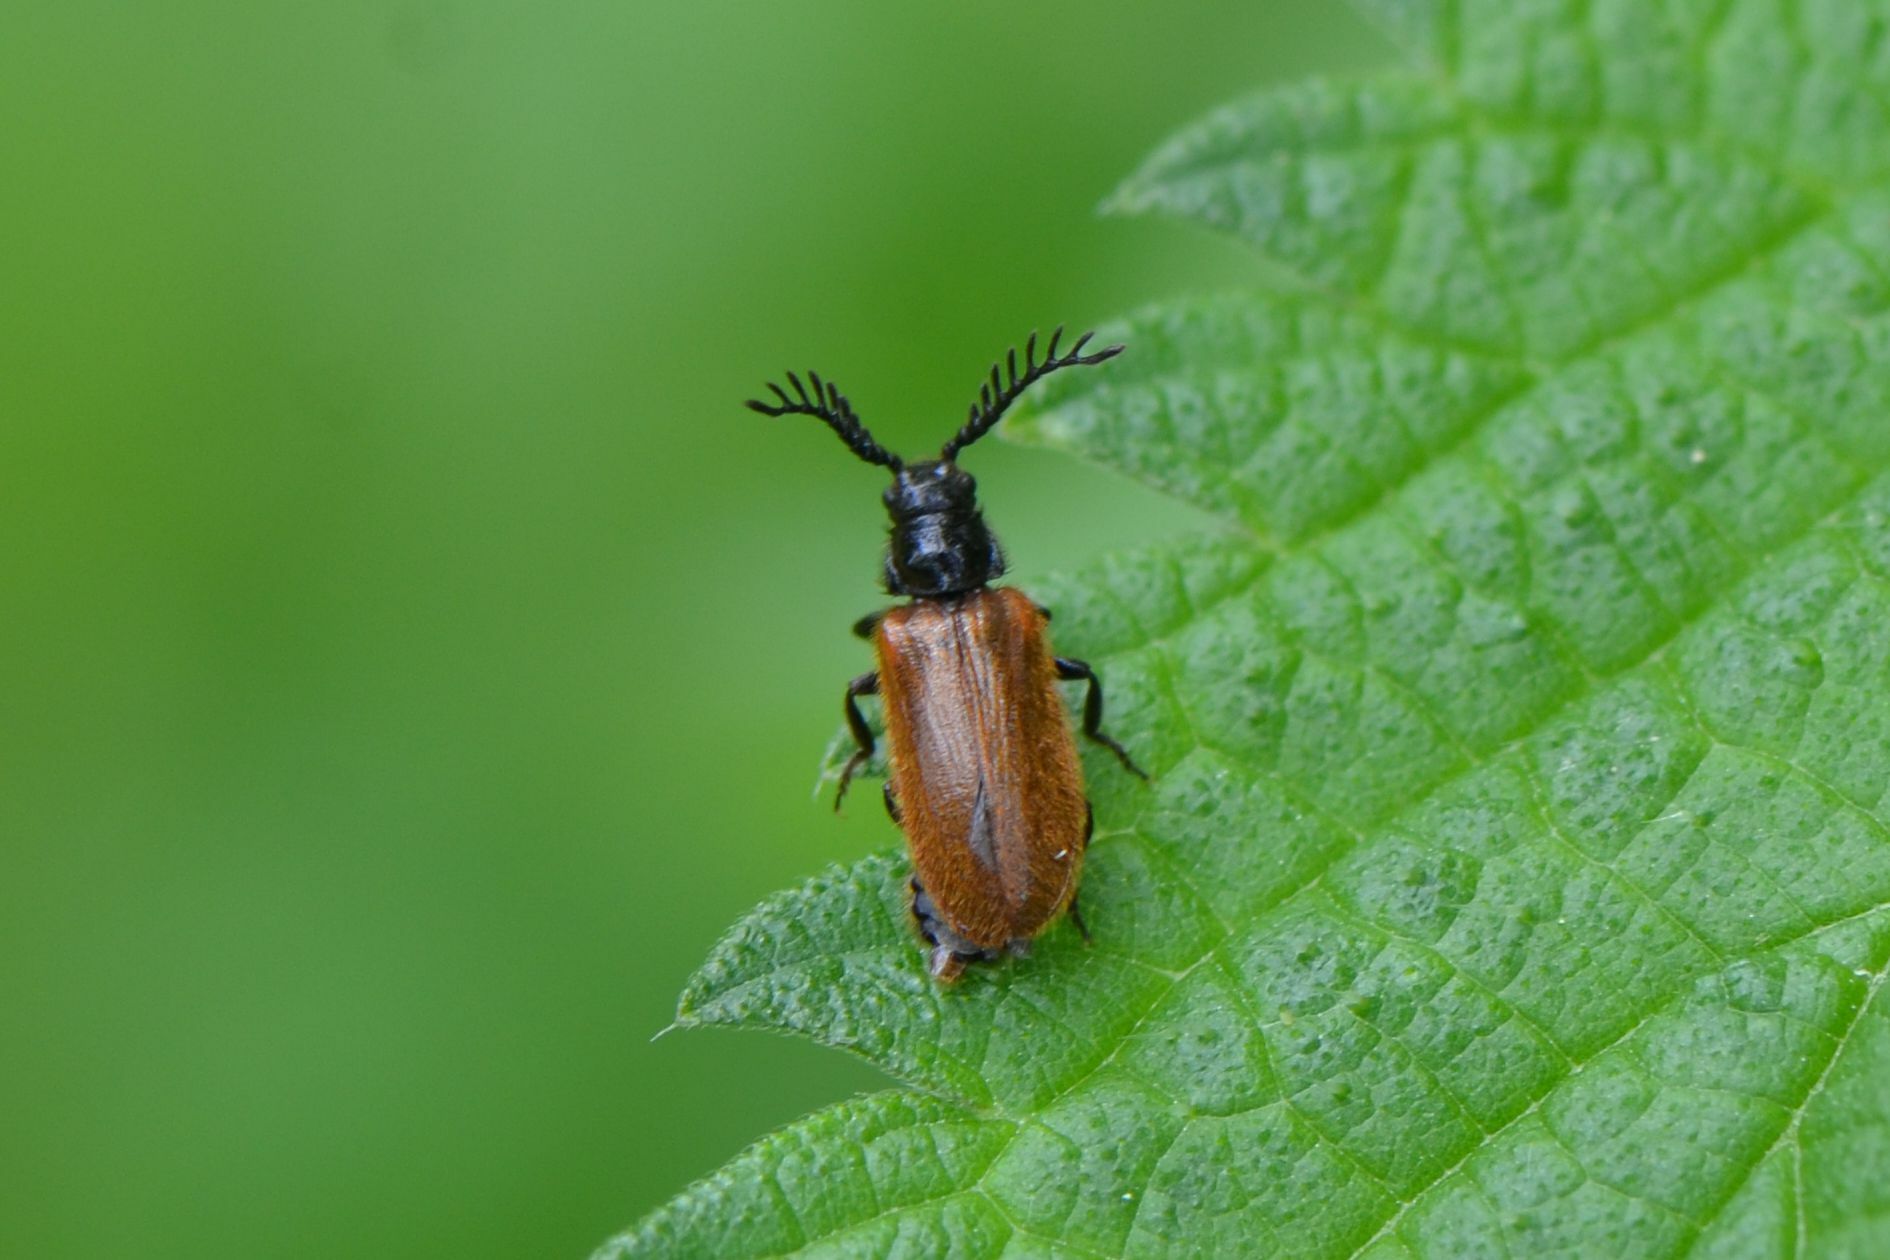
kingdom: Animalia
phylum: Arthropoda
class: Insecta
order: Coleoptera
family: Drilidae
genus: Drilus
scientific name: Drilus flavescens
